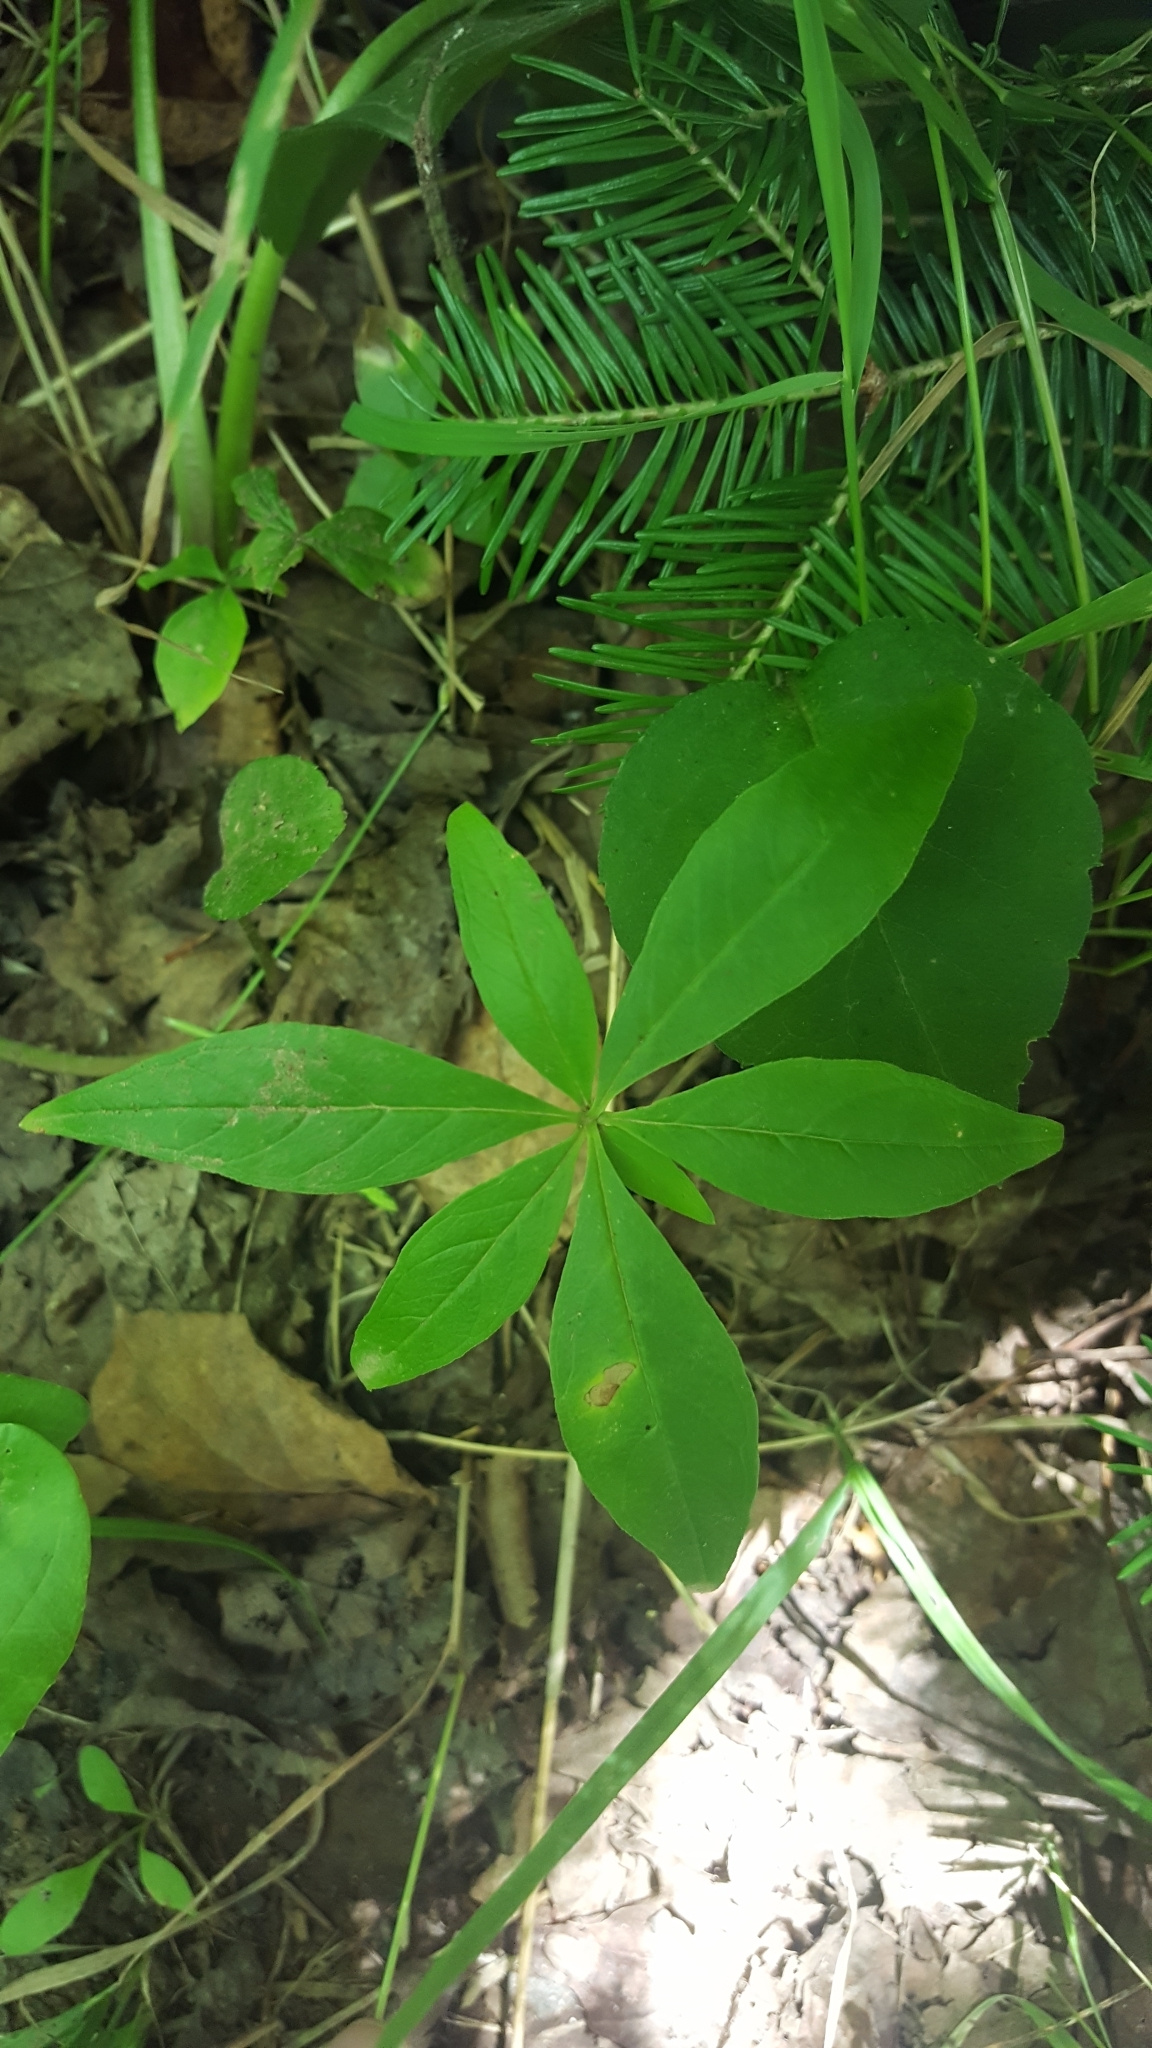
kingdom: Plantae
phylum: Tracheophyta
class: Magnoliopsida
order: Ericales
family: Primulaceae
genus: Lysimachia
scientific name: Lysimachia borealis
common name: American starflower
